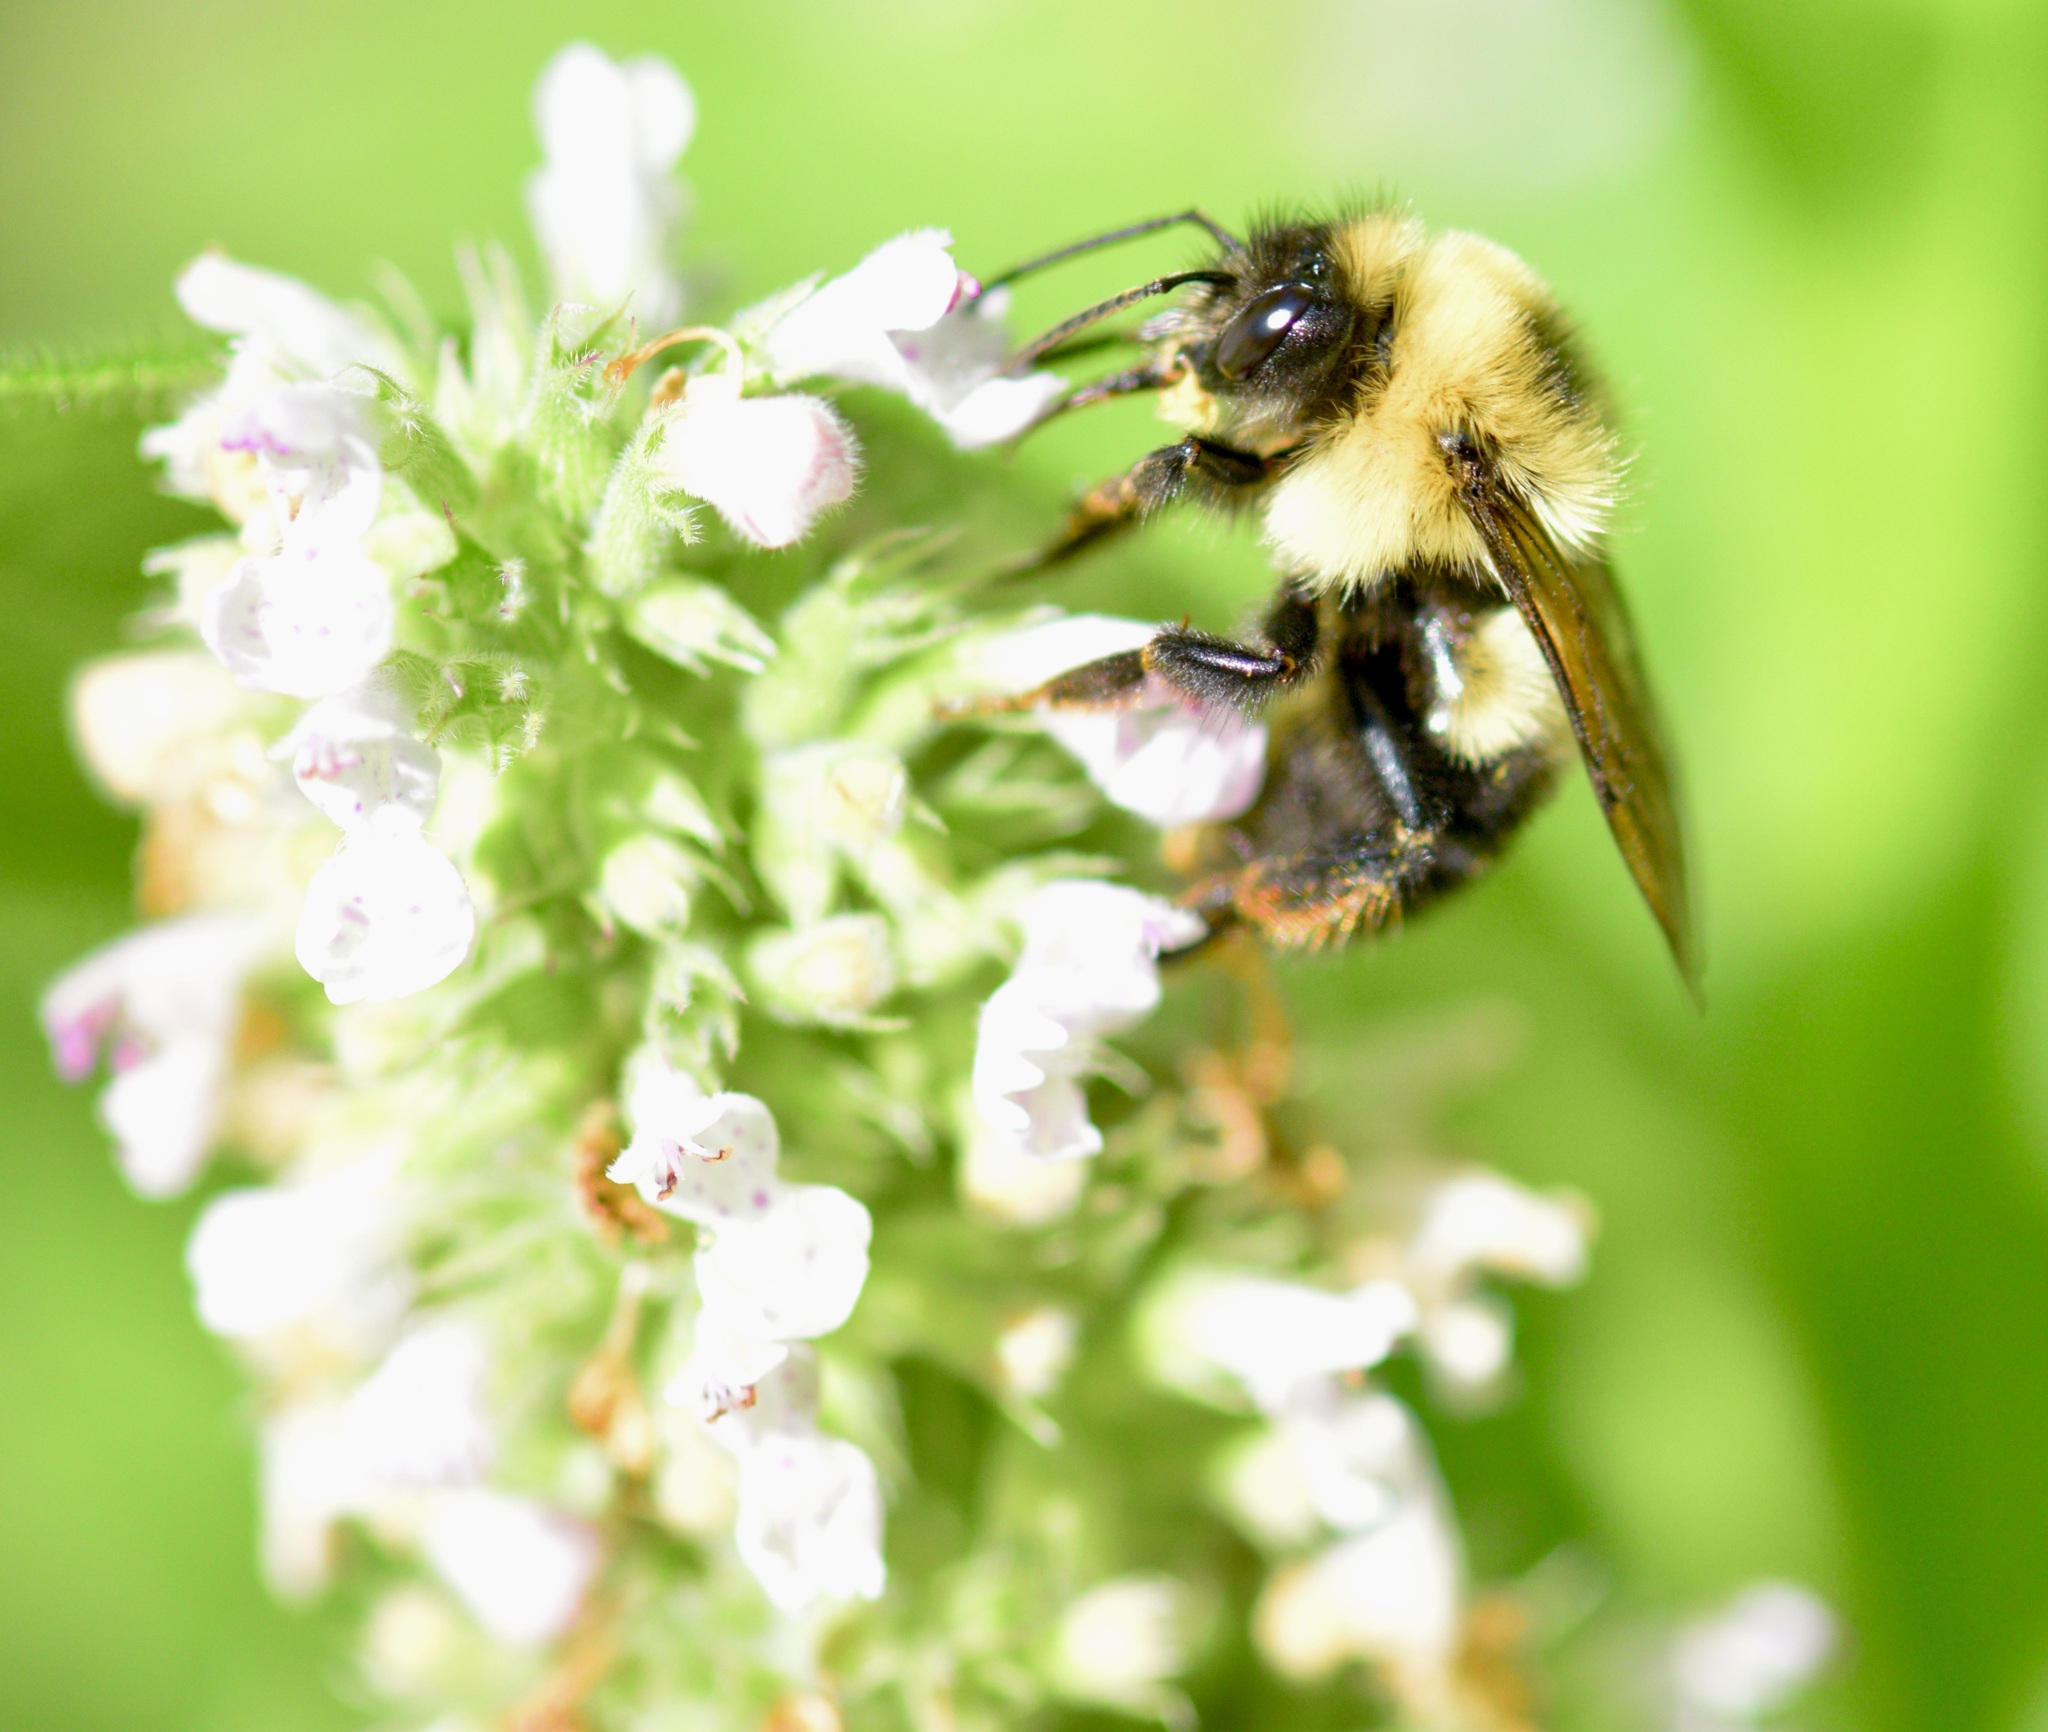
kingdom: Animalia
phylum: Arthropoda
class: Insecta
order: Hymenoptera
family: Apidae
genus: Bombus
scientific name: Bombus bimaculatus
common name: Two-spotted bumble bee
